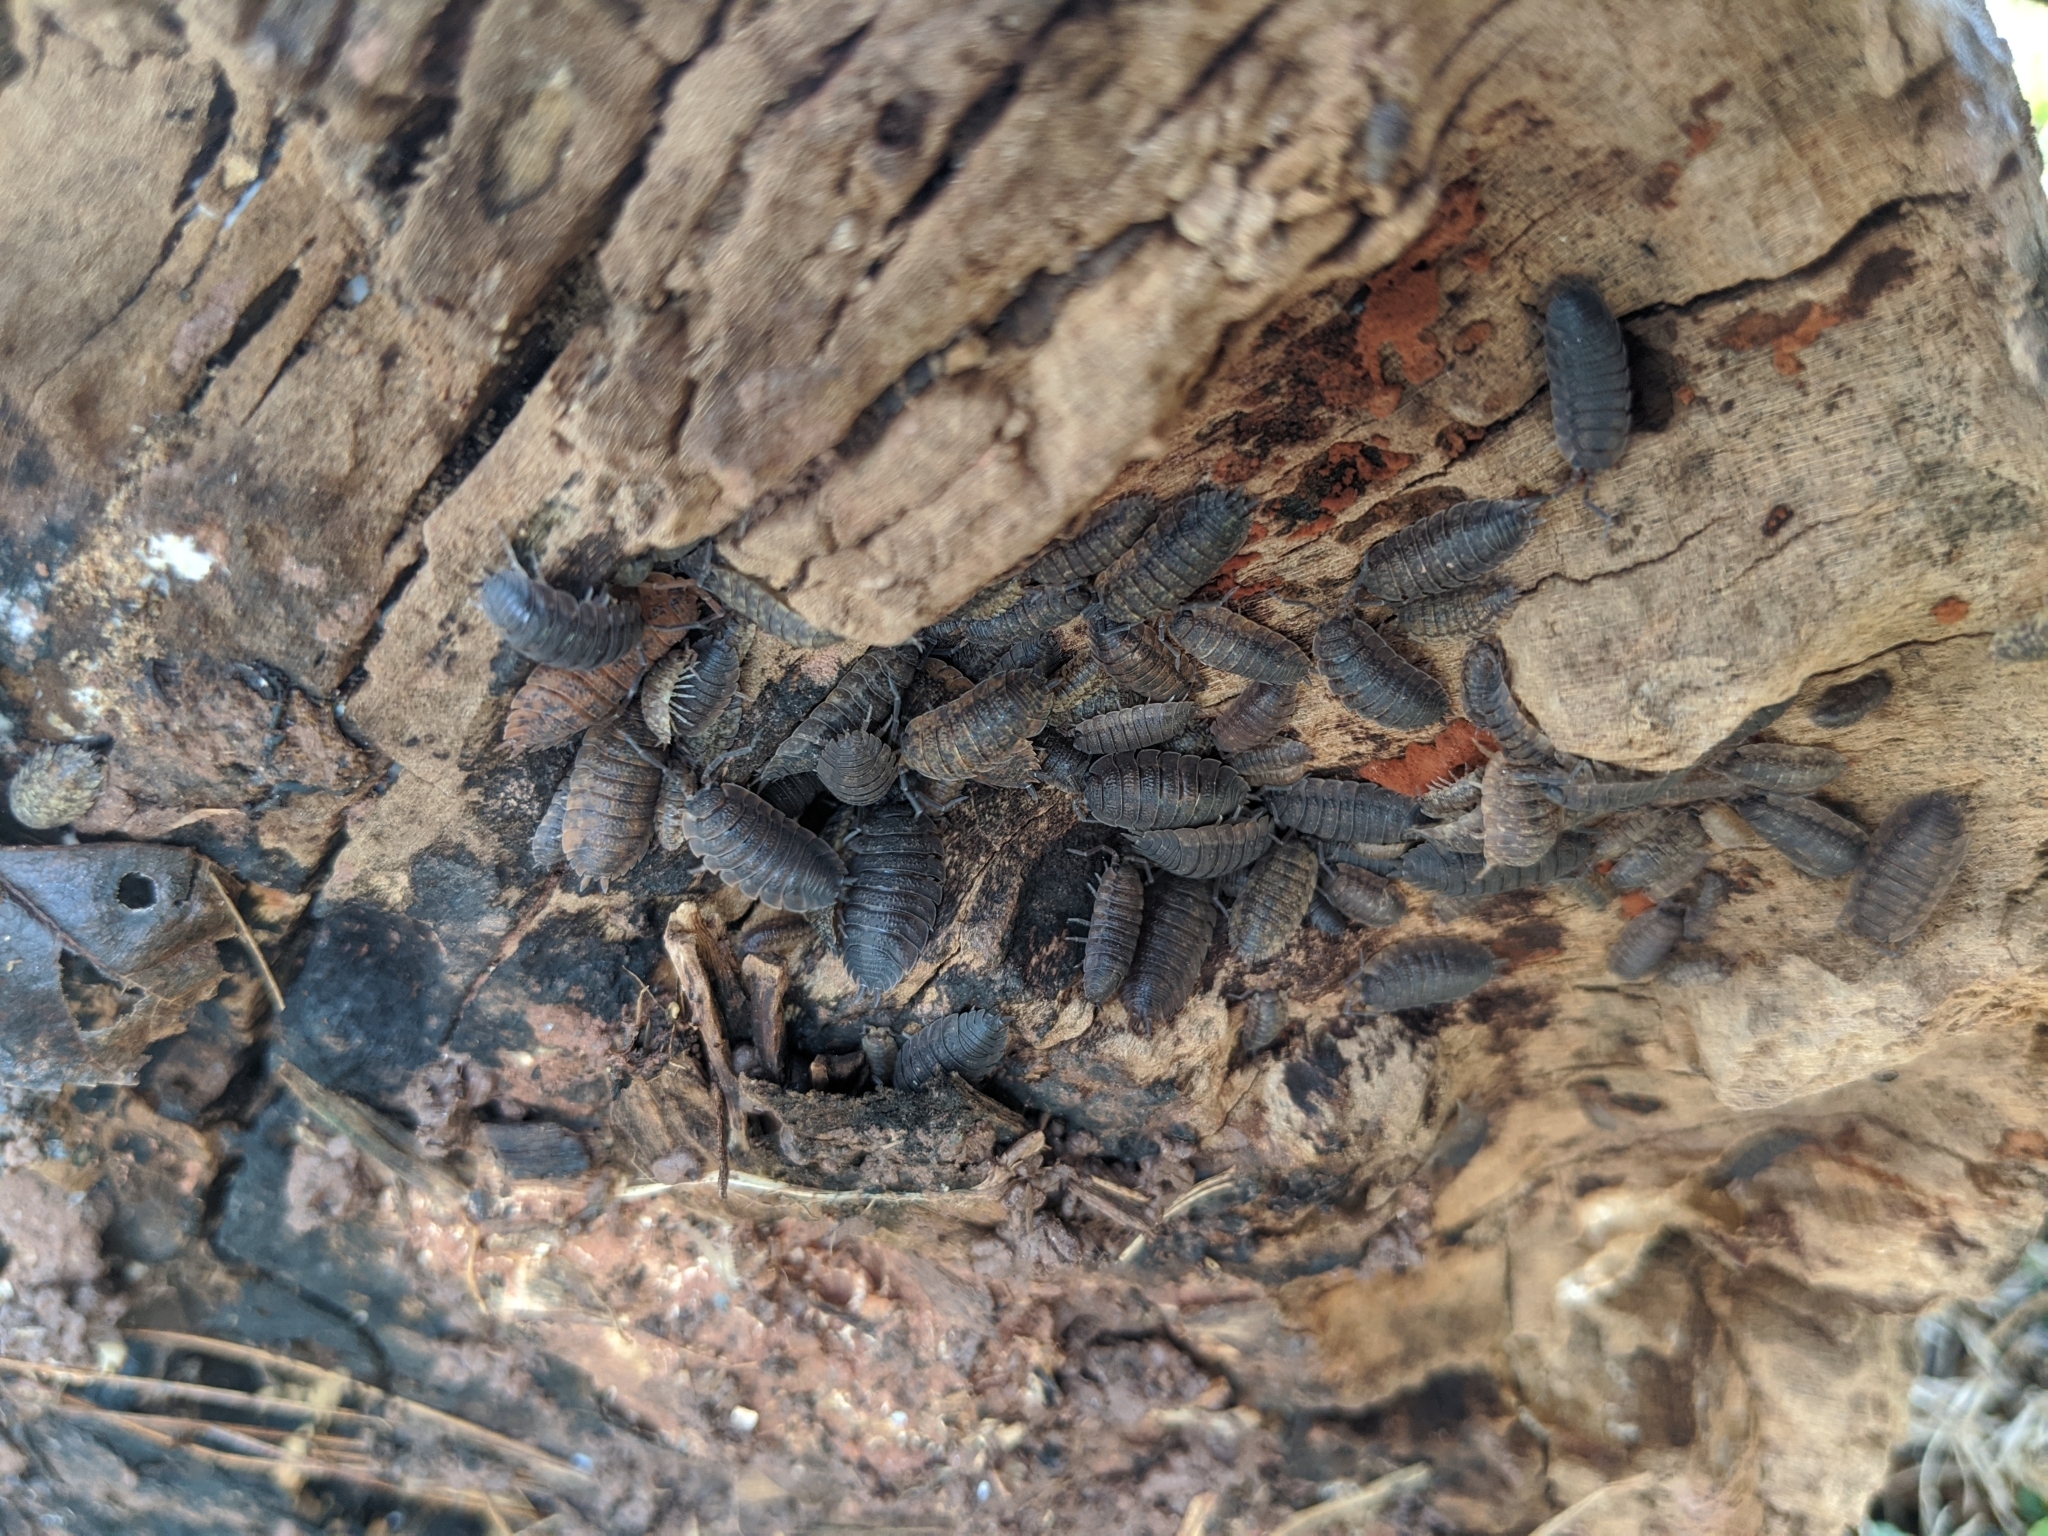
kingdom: Animalia
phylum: Arthropoda
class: Malacostraca
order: Isopoda
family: Porcellionidae
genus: Porcellio
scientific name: Porcellio scaber
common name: Common rough woodlouse
